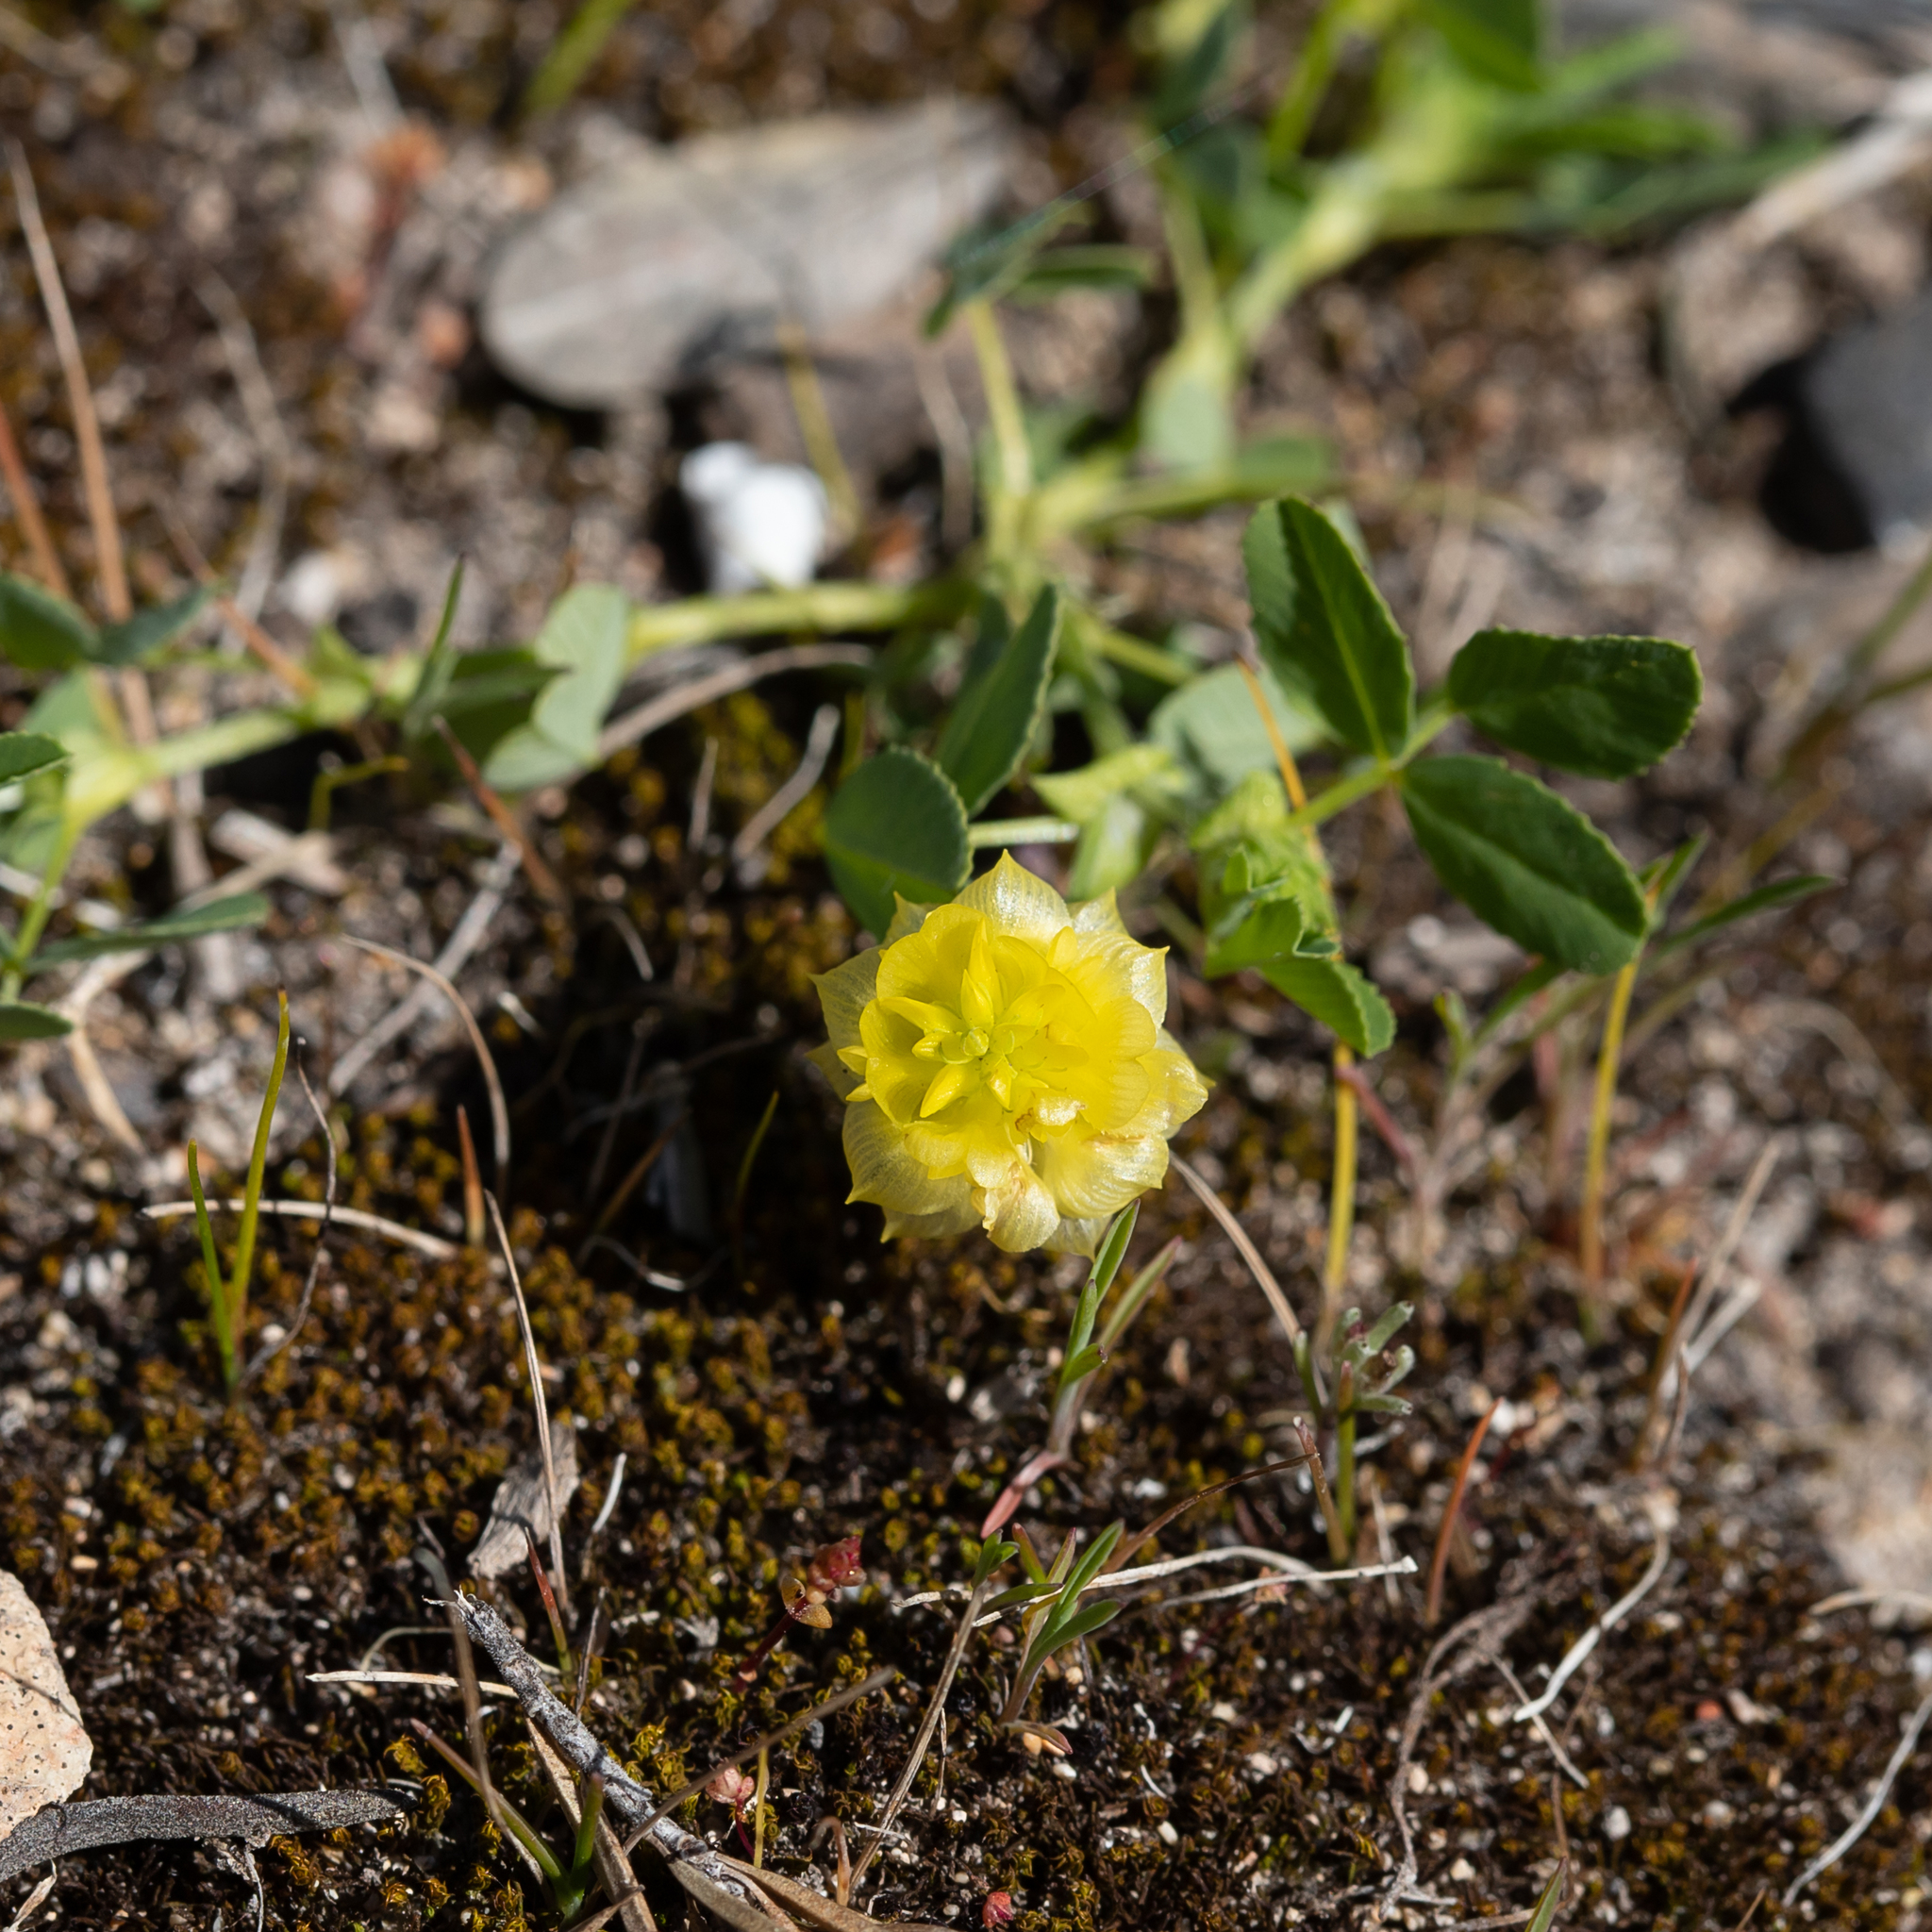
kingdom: Plantae
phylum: Tracheophyta
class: Magnoliopsida
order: Fabales
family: Fabaceae
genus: Trifolium
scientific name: Trifolium campestre
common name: Field clover
